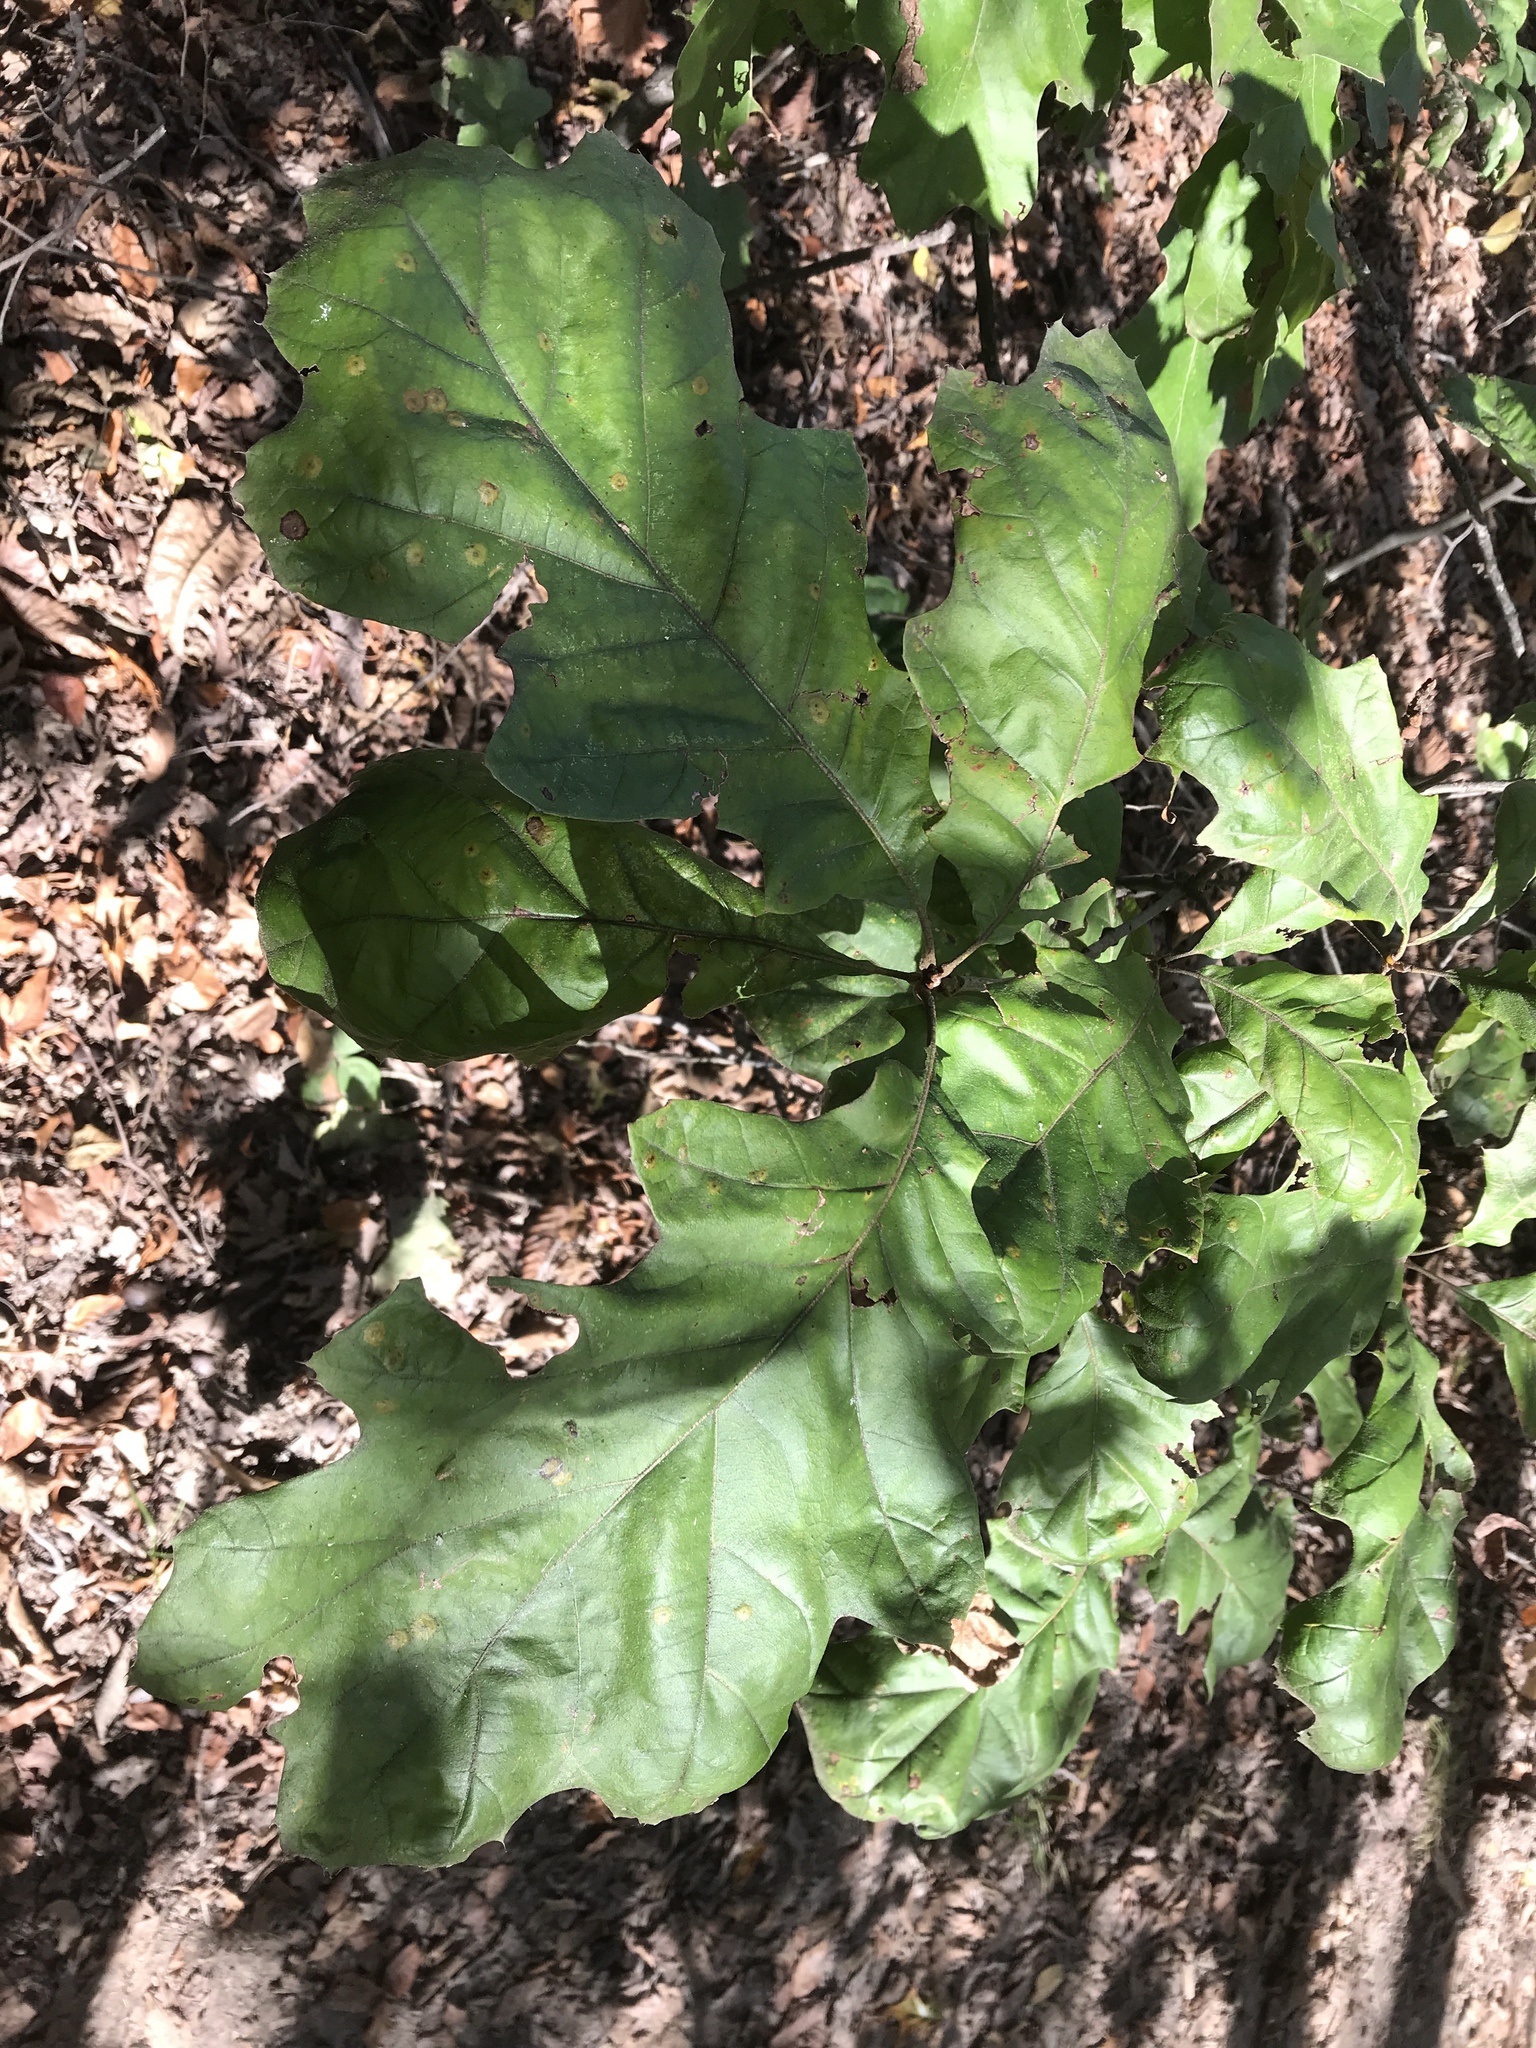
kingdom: Plantae
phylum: Tracheophyta
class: Magnoliopsida
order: Fagales
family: Fagaceae
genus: Quercus
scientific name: Quercus velutina
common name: Black oak
